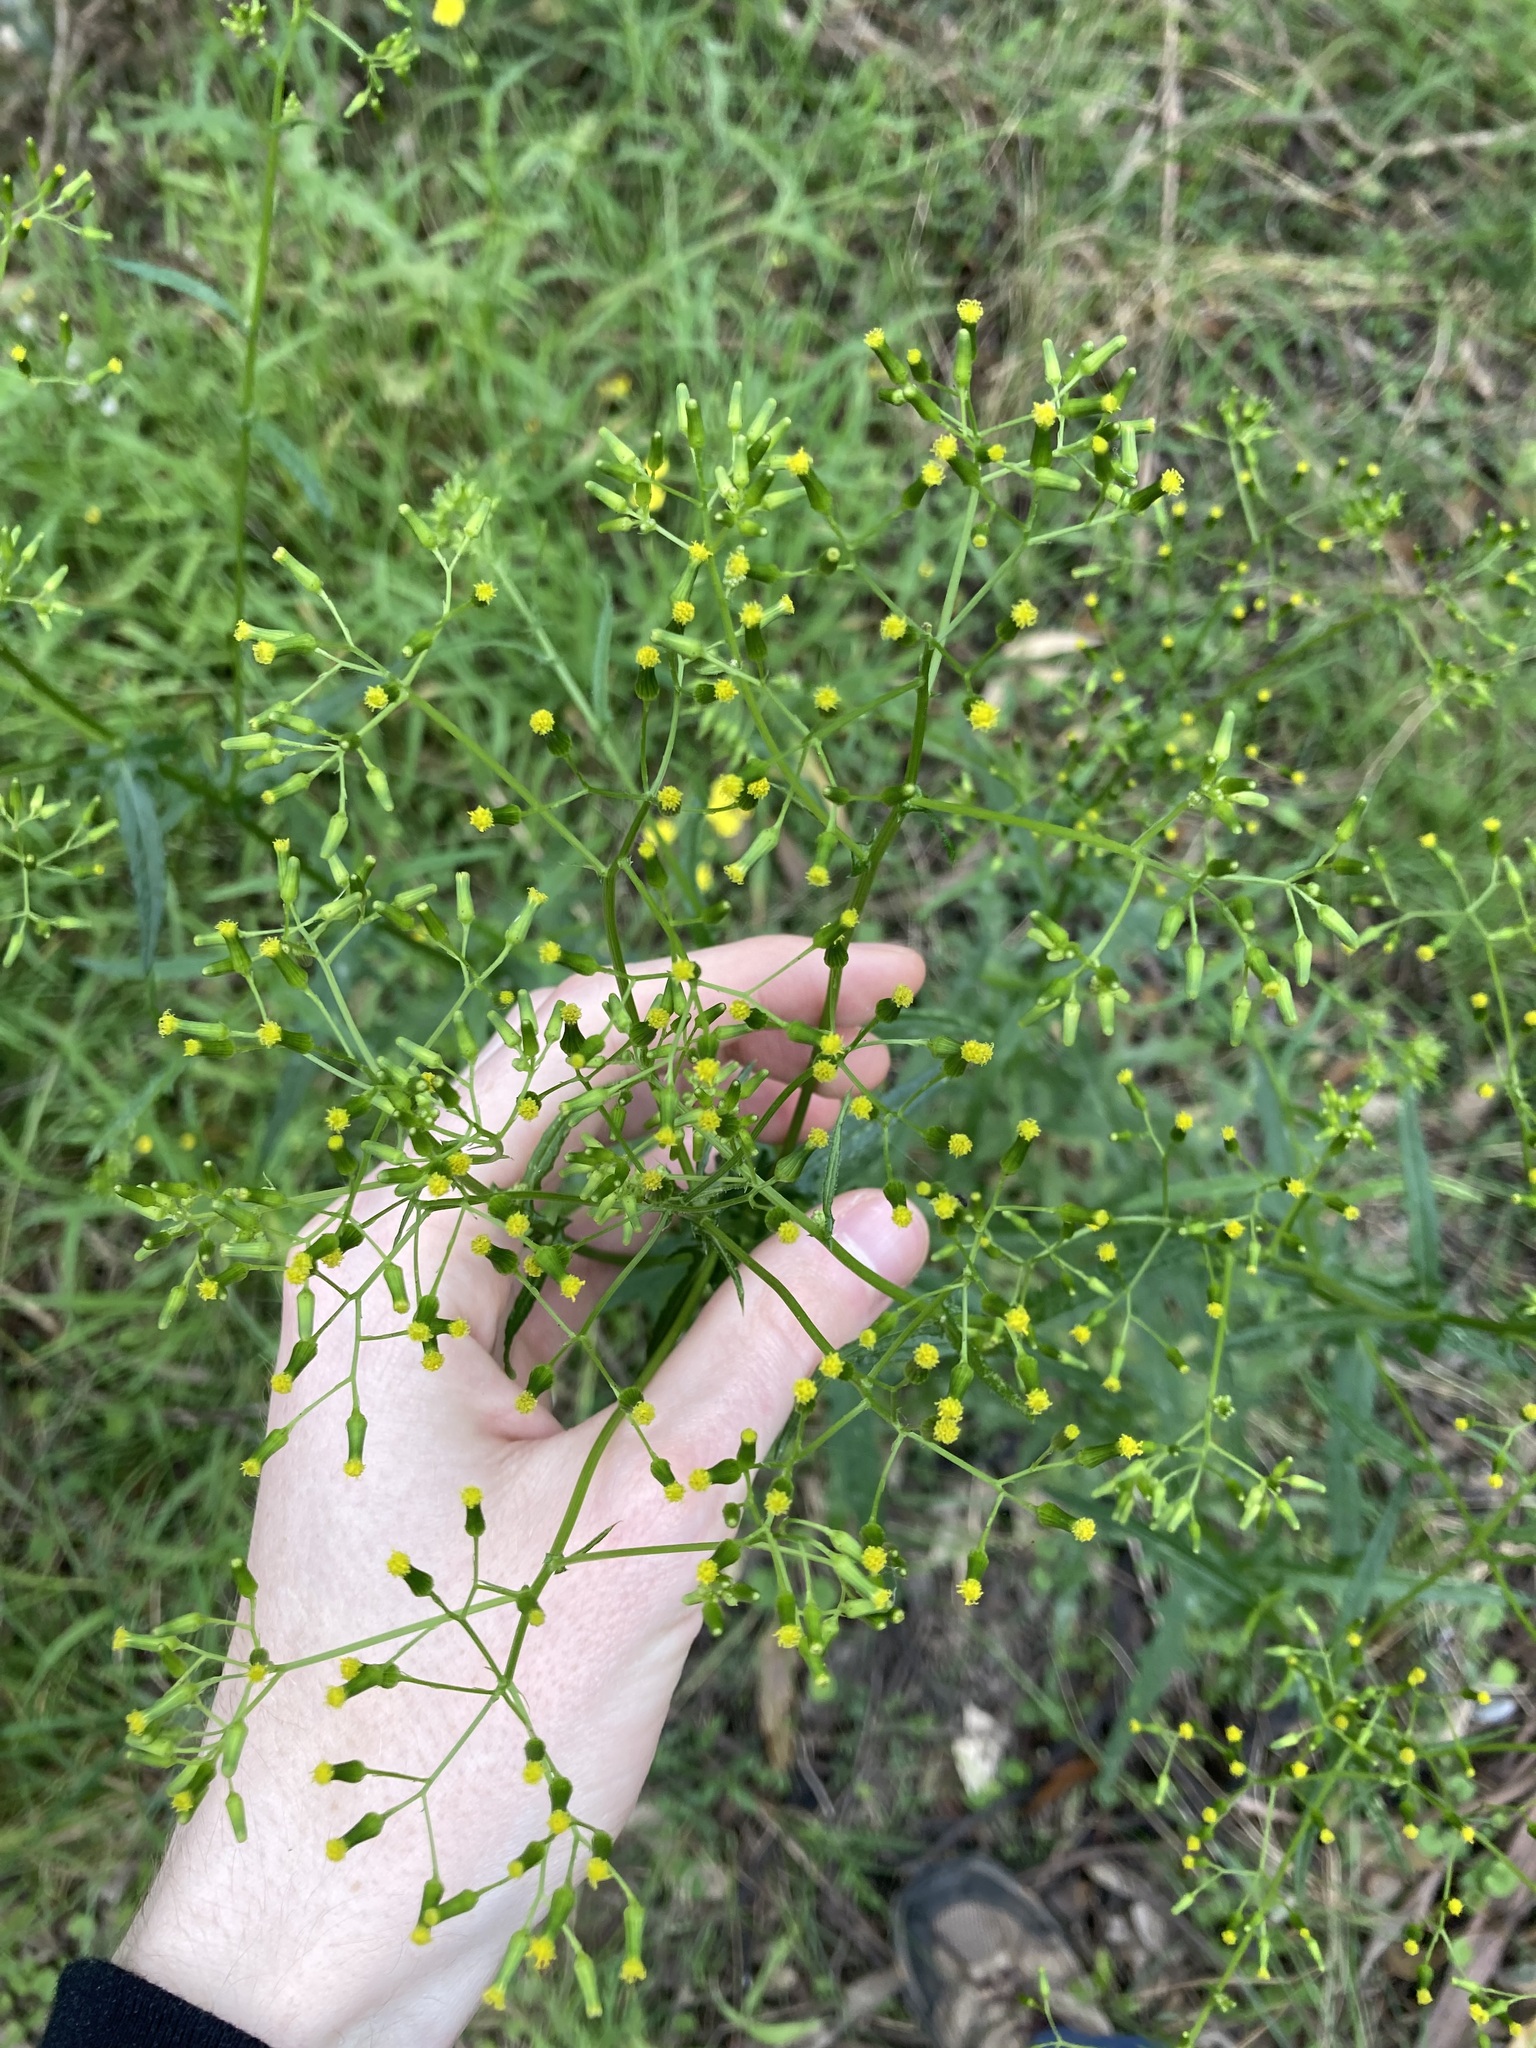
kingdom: Plantae
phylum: Tracheophyta
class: Magnoliopsida
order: Asterales
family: Asteraceae
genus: Senecio
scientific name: Senecio hispidulus
